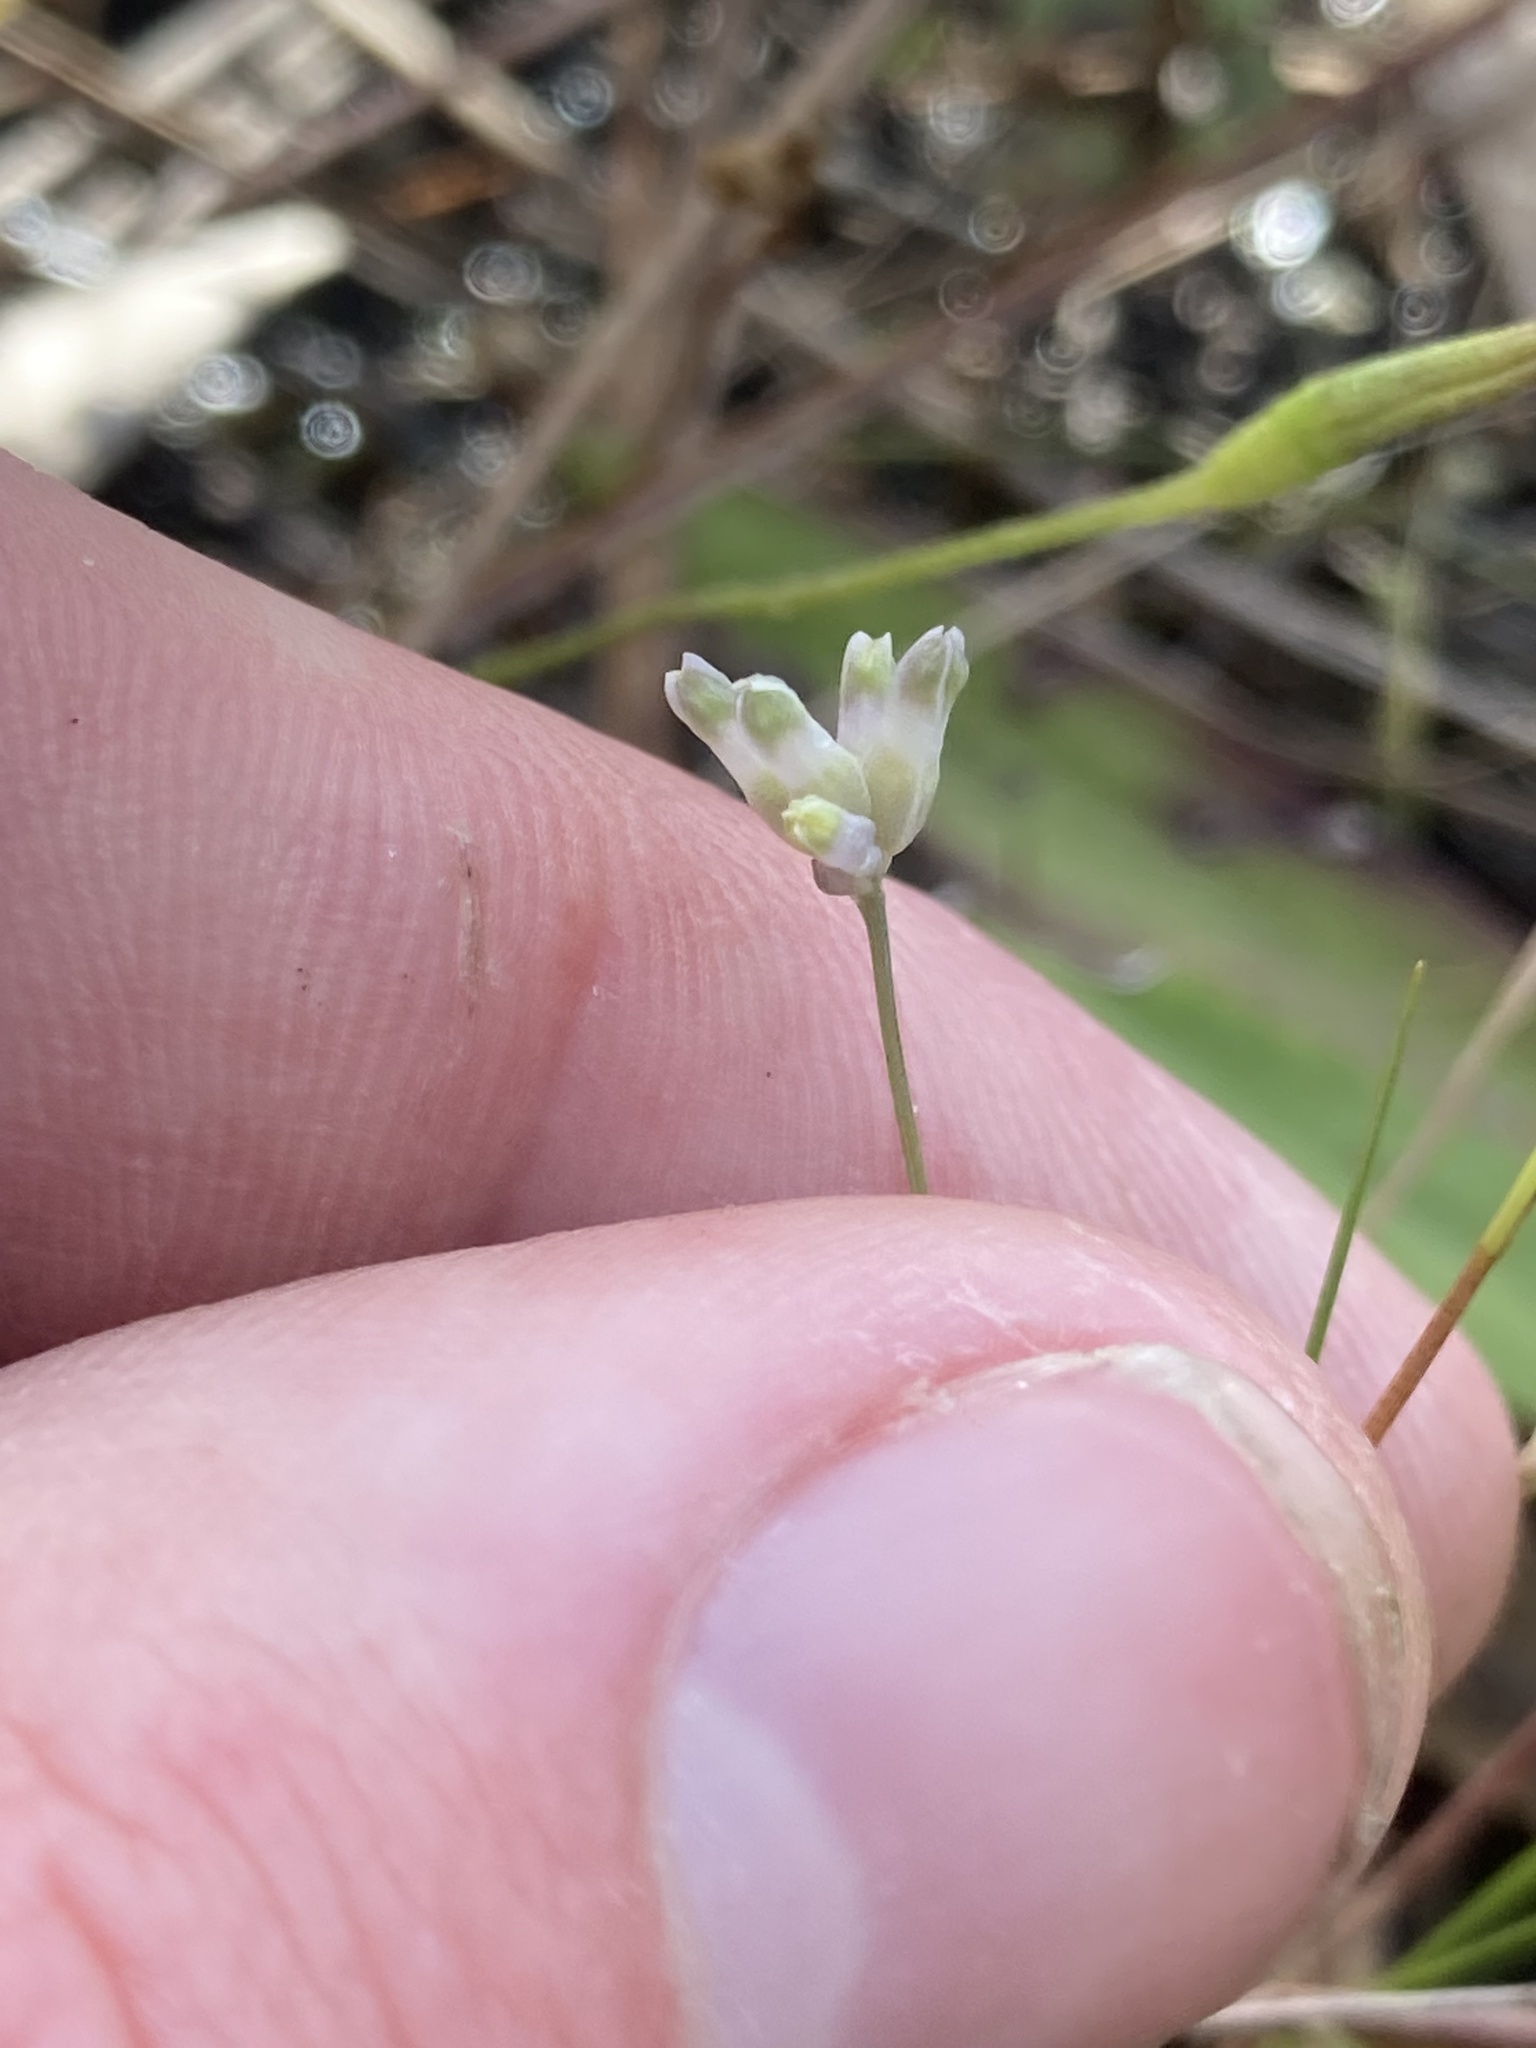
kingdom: Plantae
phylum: Tracheophyta
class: Liliopsida
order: Dioscoreales
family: Burmanniaceae
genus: Burmannia
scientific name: Burmannia capitata
